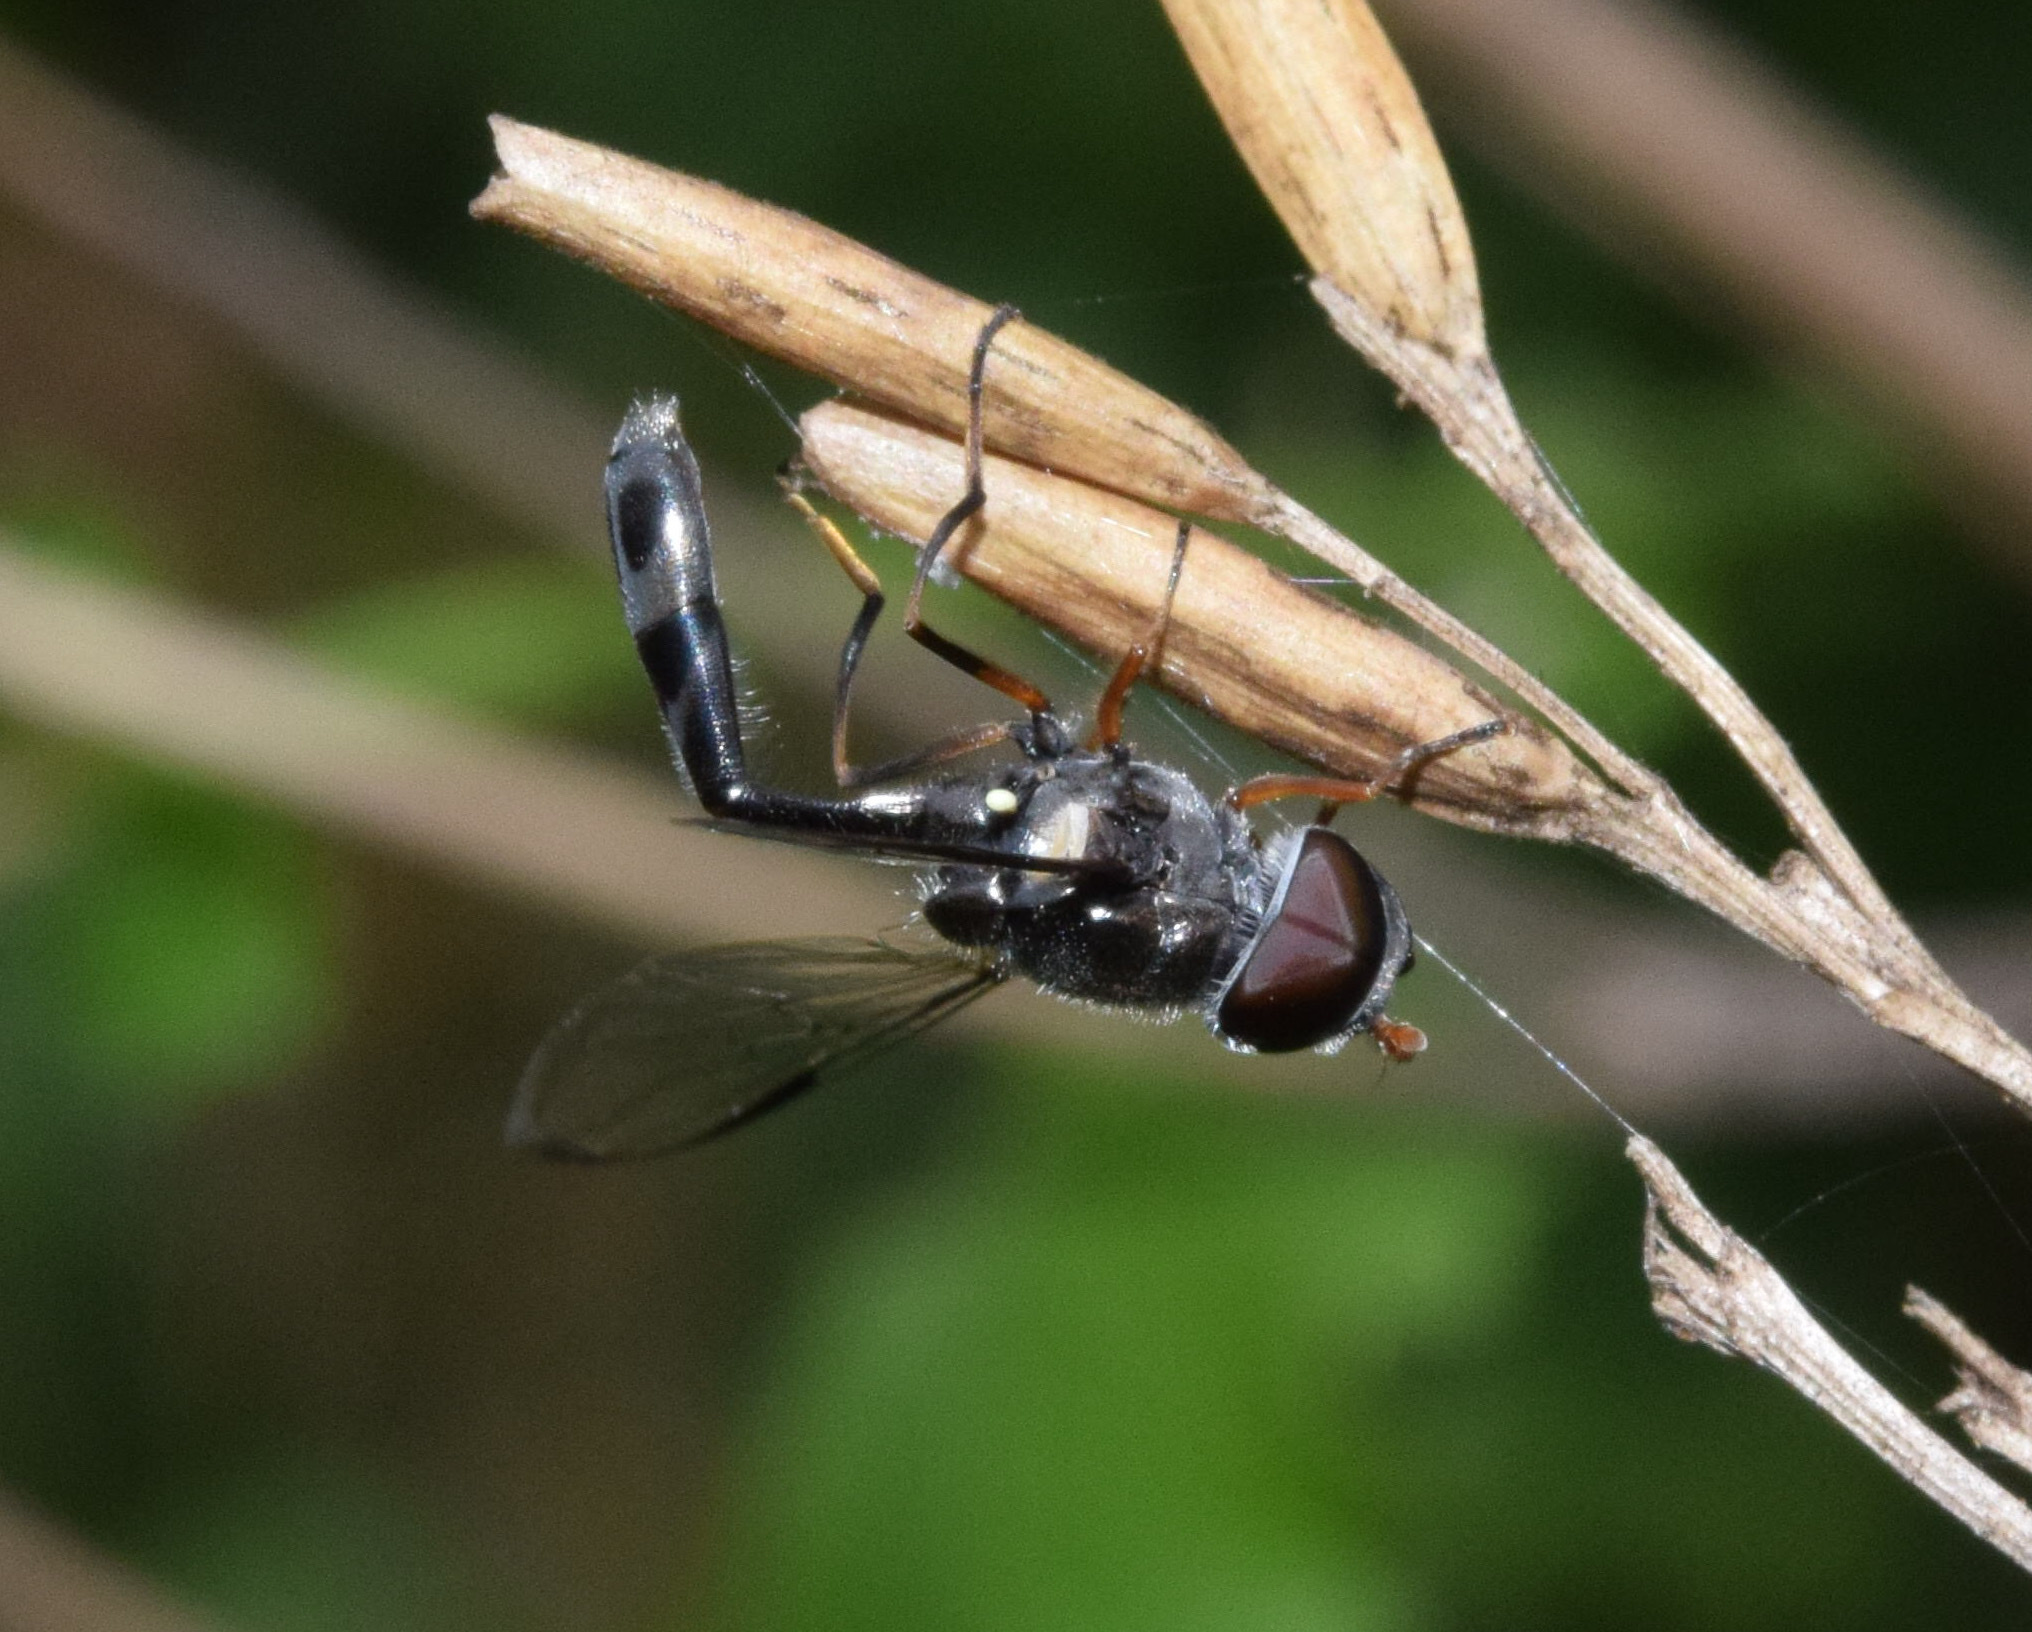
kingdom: Animalia
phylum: Arthropoda
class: Insecta
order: Diptera
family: Syrphidae
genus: Allobaccha
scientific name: Allobaccha sapphirina
